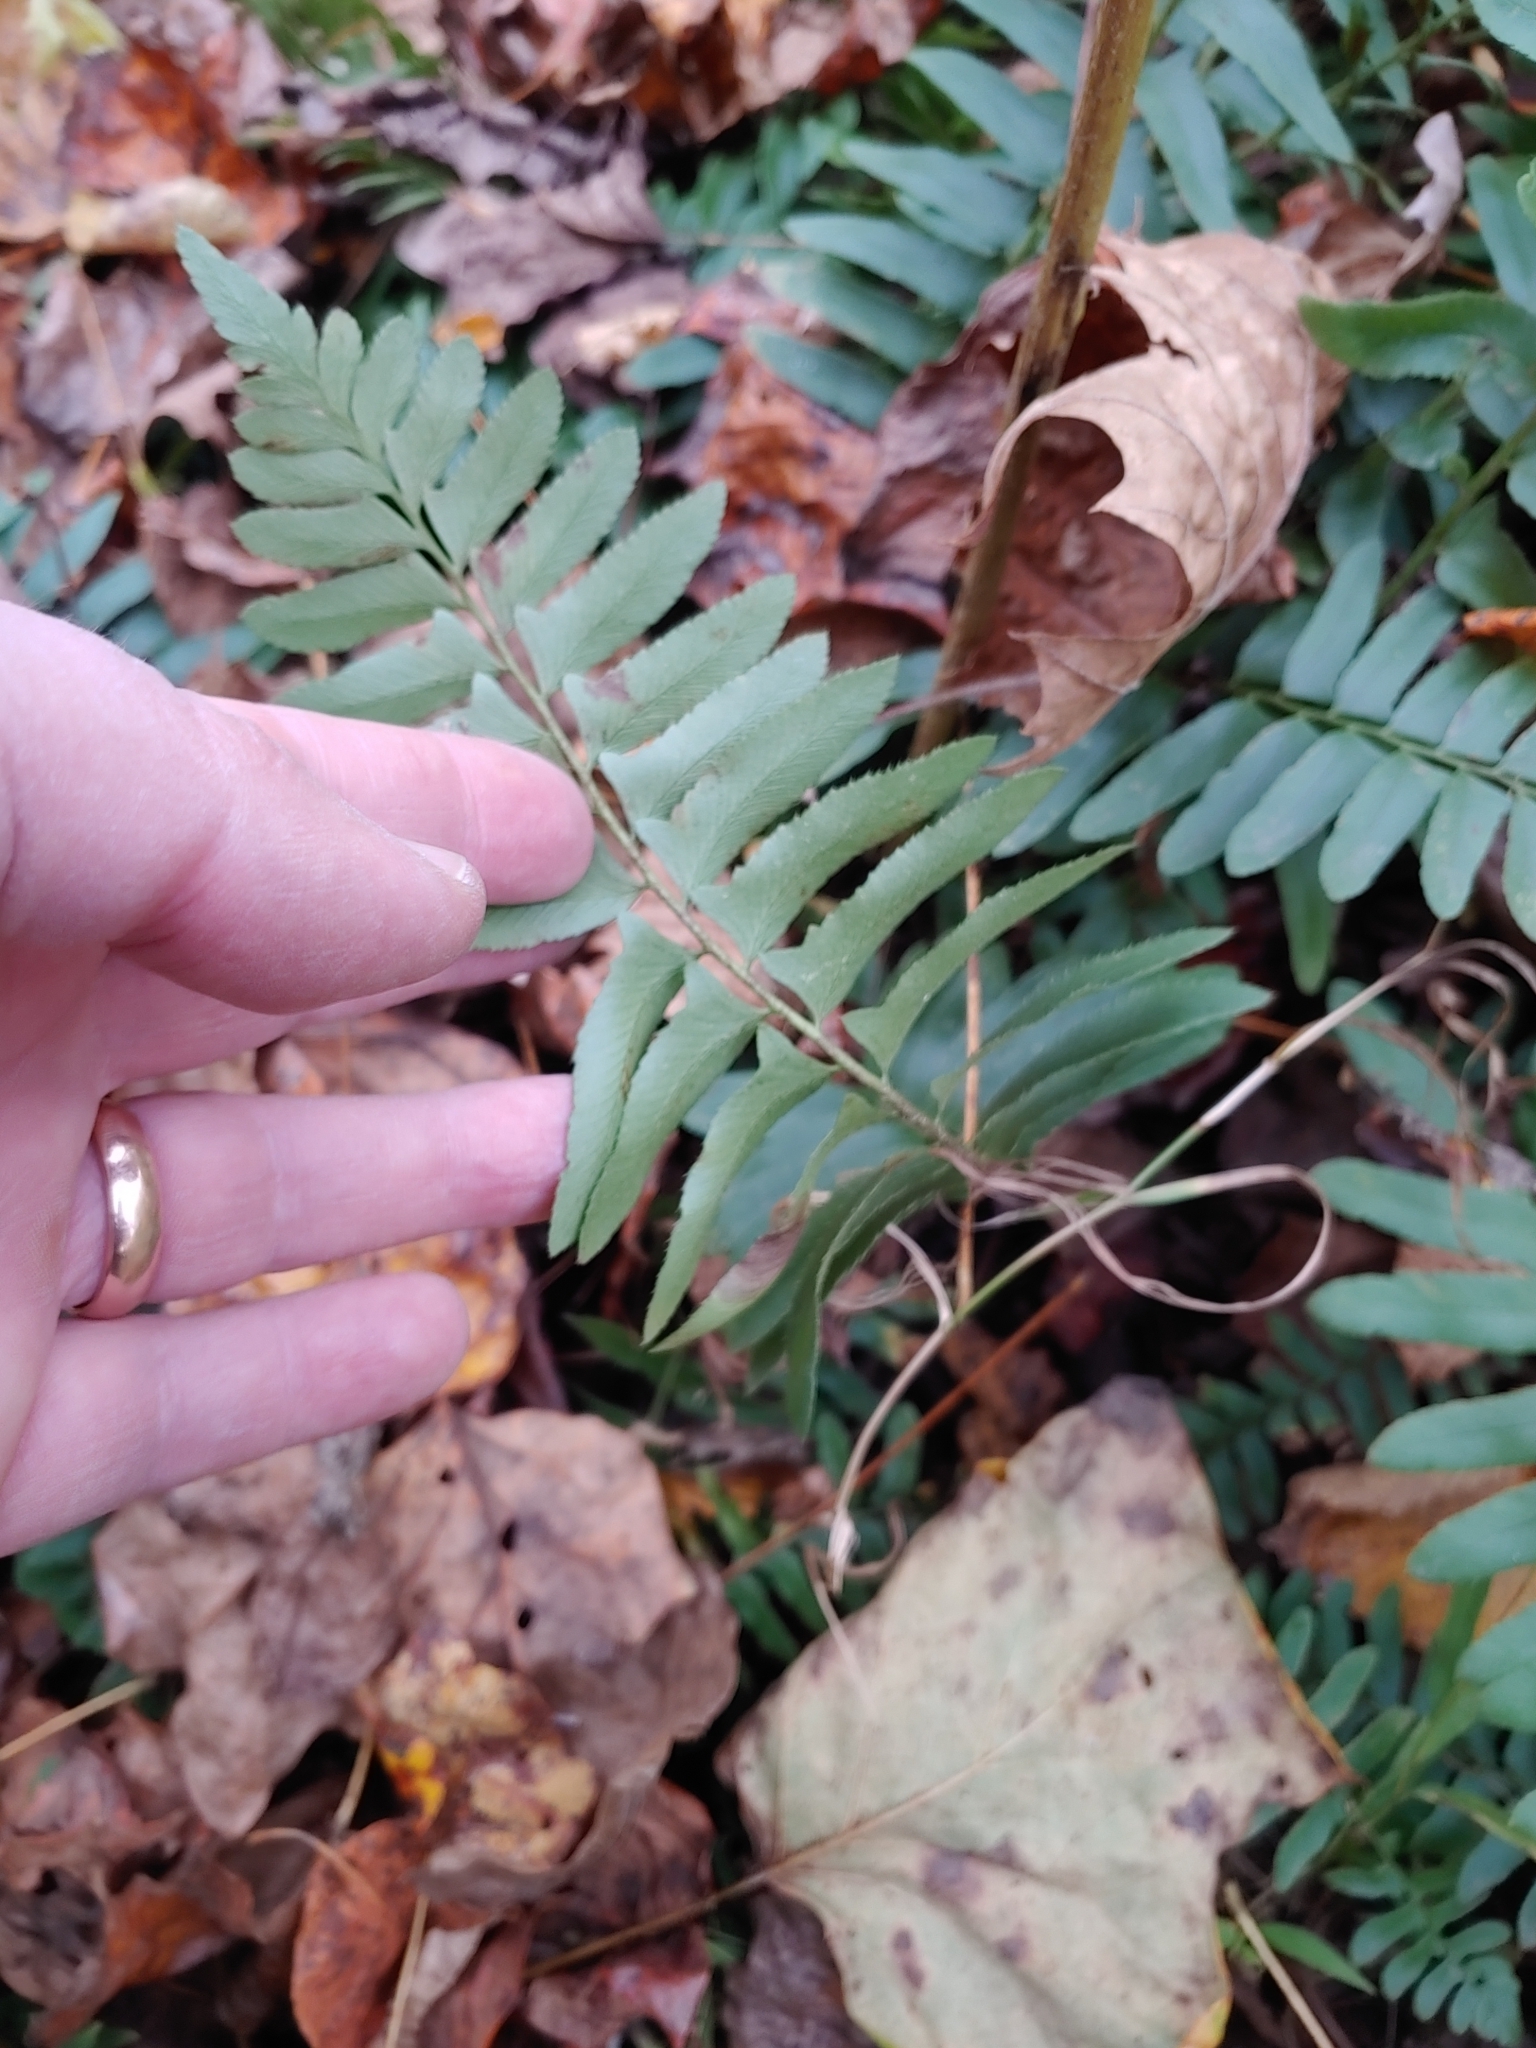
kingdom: Plantae
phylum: Tracheophyta
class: Polypodiopsida
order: Polypodiales
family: Dryopteridaceae
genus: Polystichum
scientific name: Polystichum acrostichoides
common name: Christmas fern
